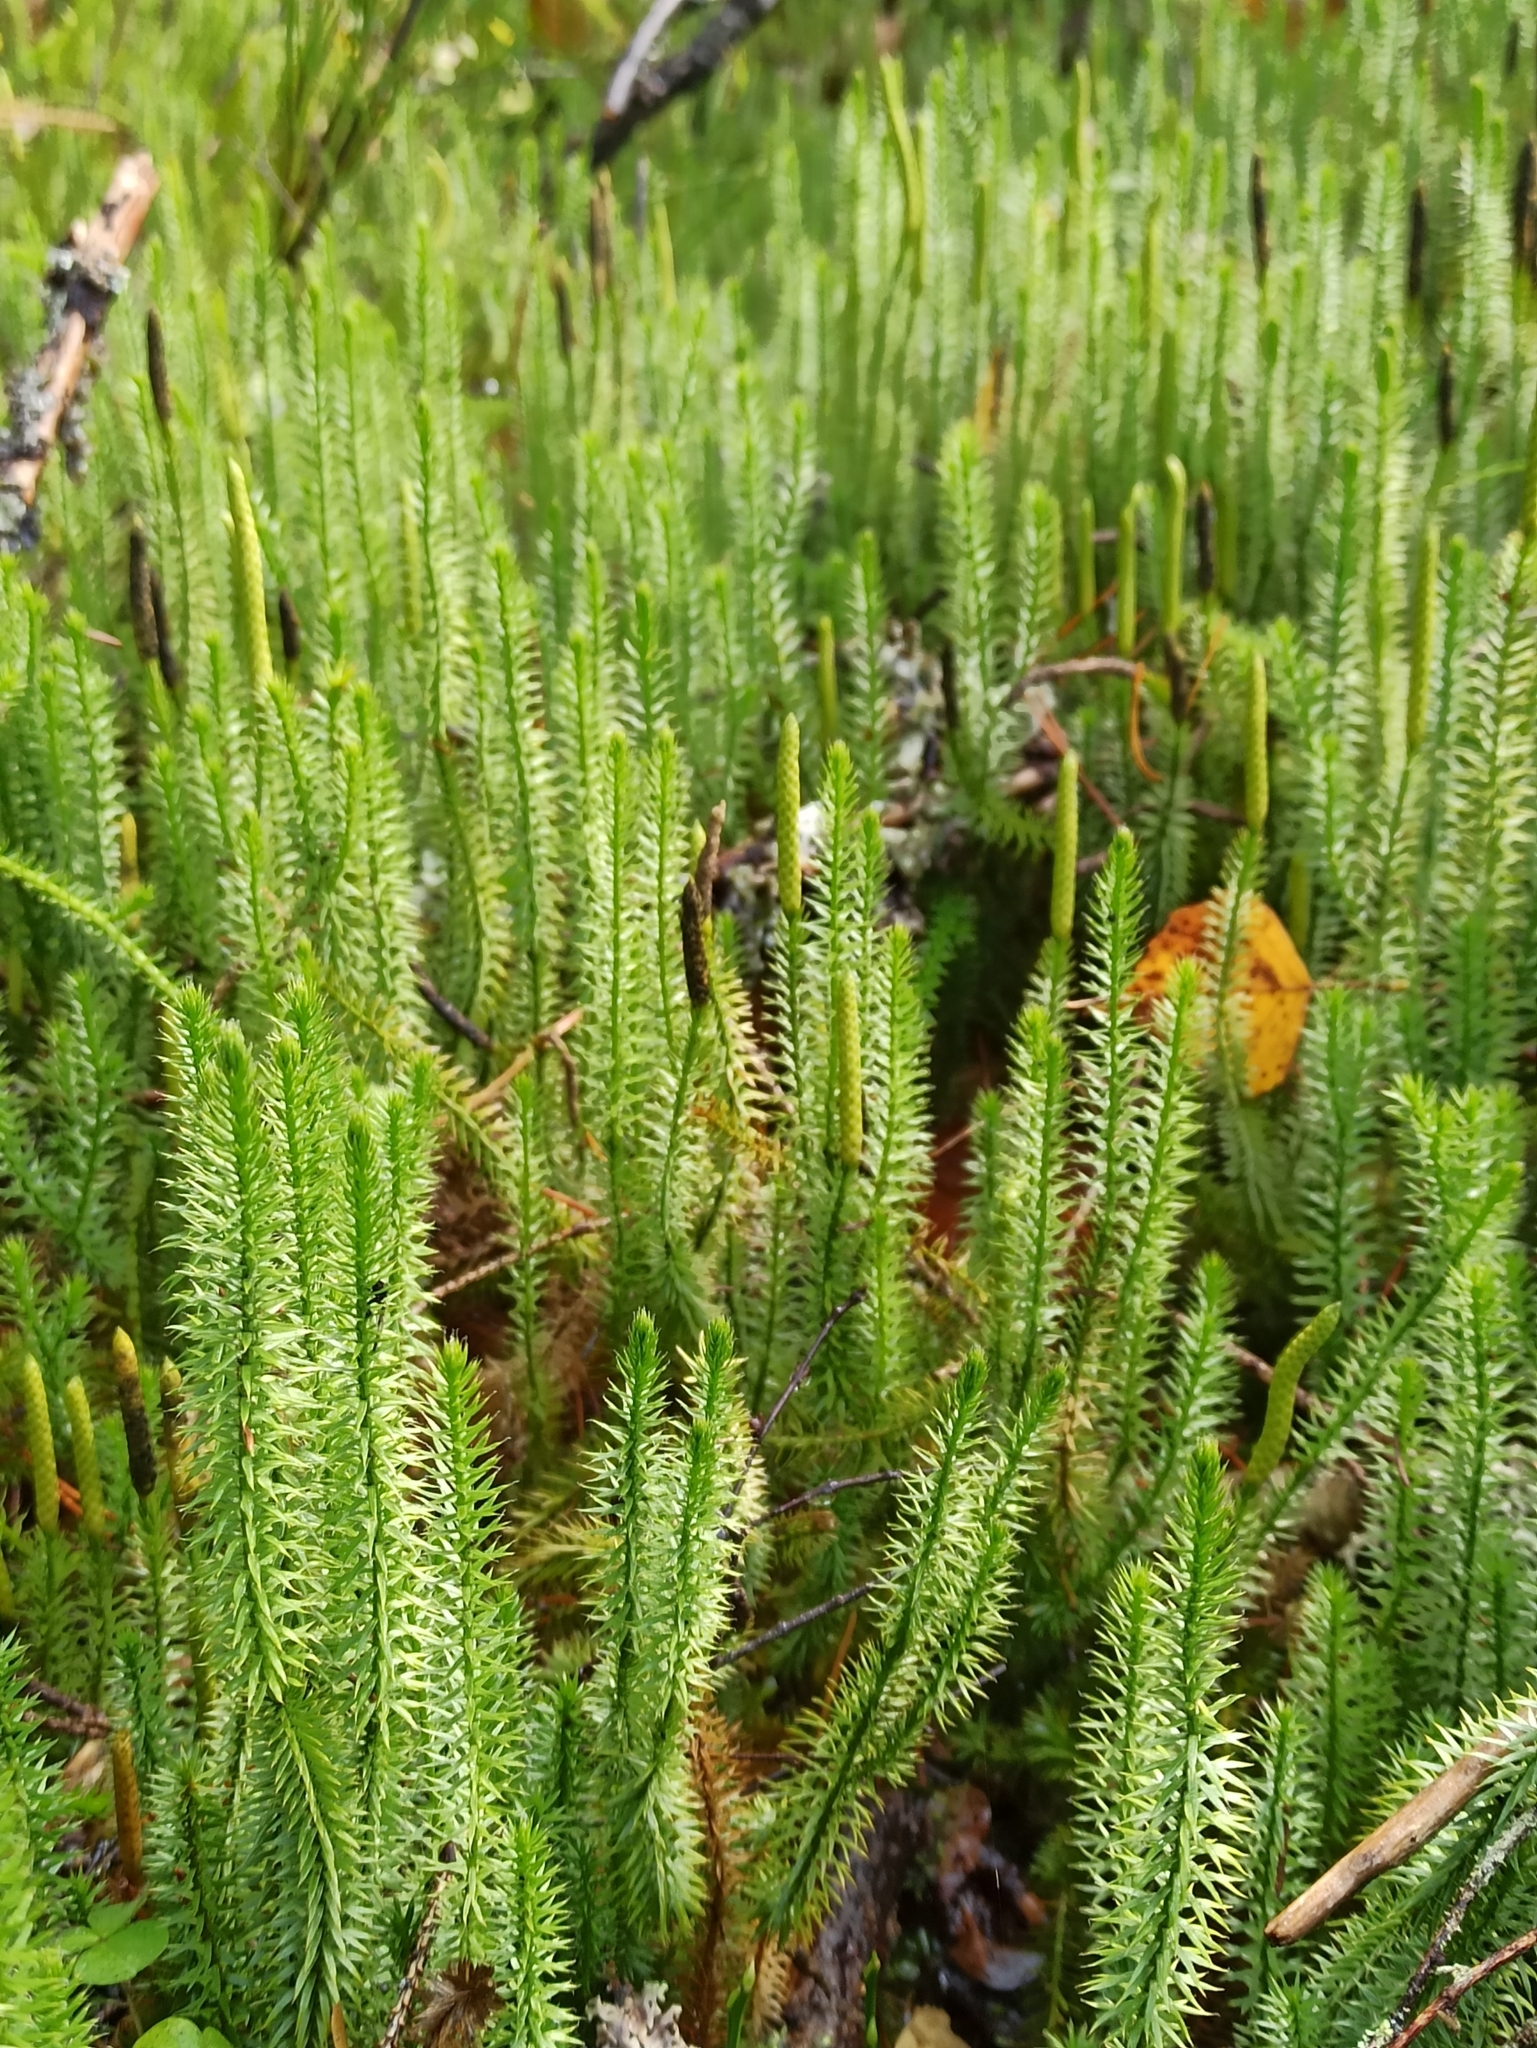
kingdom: Plantae
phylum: Tracheophyta
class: Lycopodiopsida
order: Lycopodiales
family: Lycopodiaceae
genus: Spinulum
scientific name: Spinulum annotinum
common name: Interrupted club-moss
